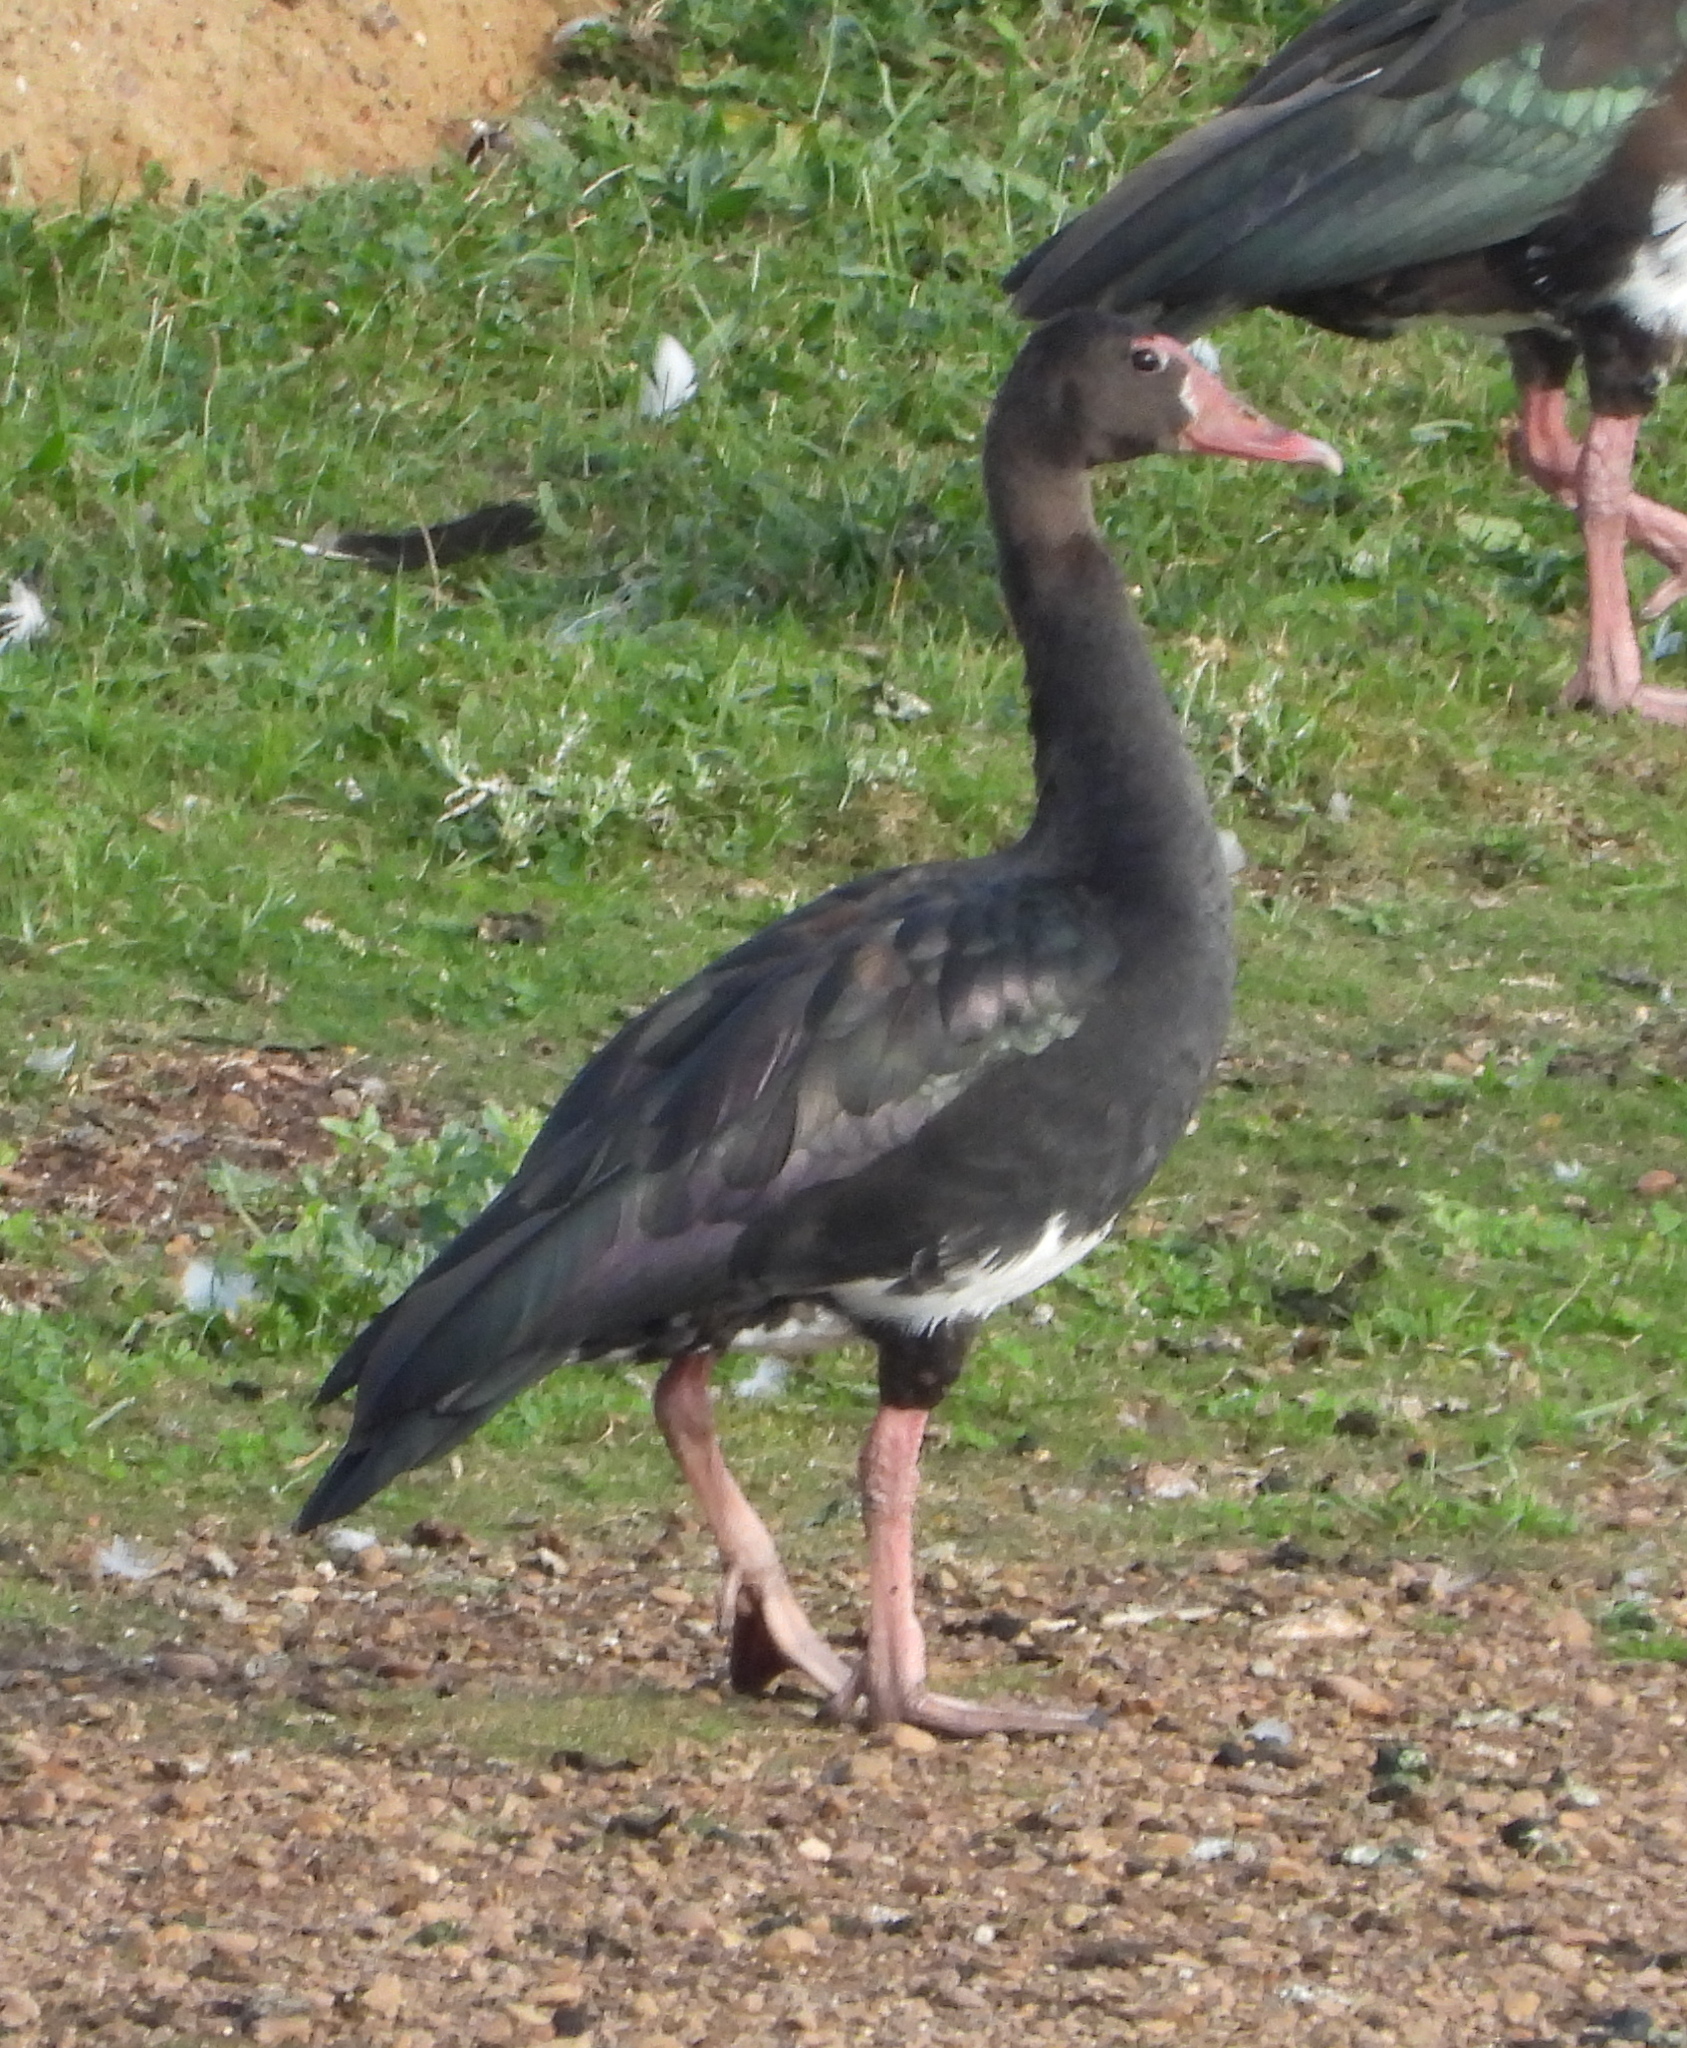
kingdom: Animalia
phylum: Chordata
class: Aves
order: Anseriformes
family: Anatidae
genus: Plectropterus
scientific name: Plectropterus gambensis
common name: Spur-winged goose
